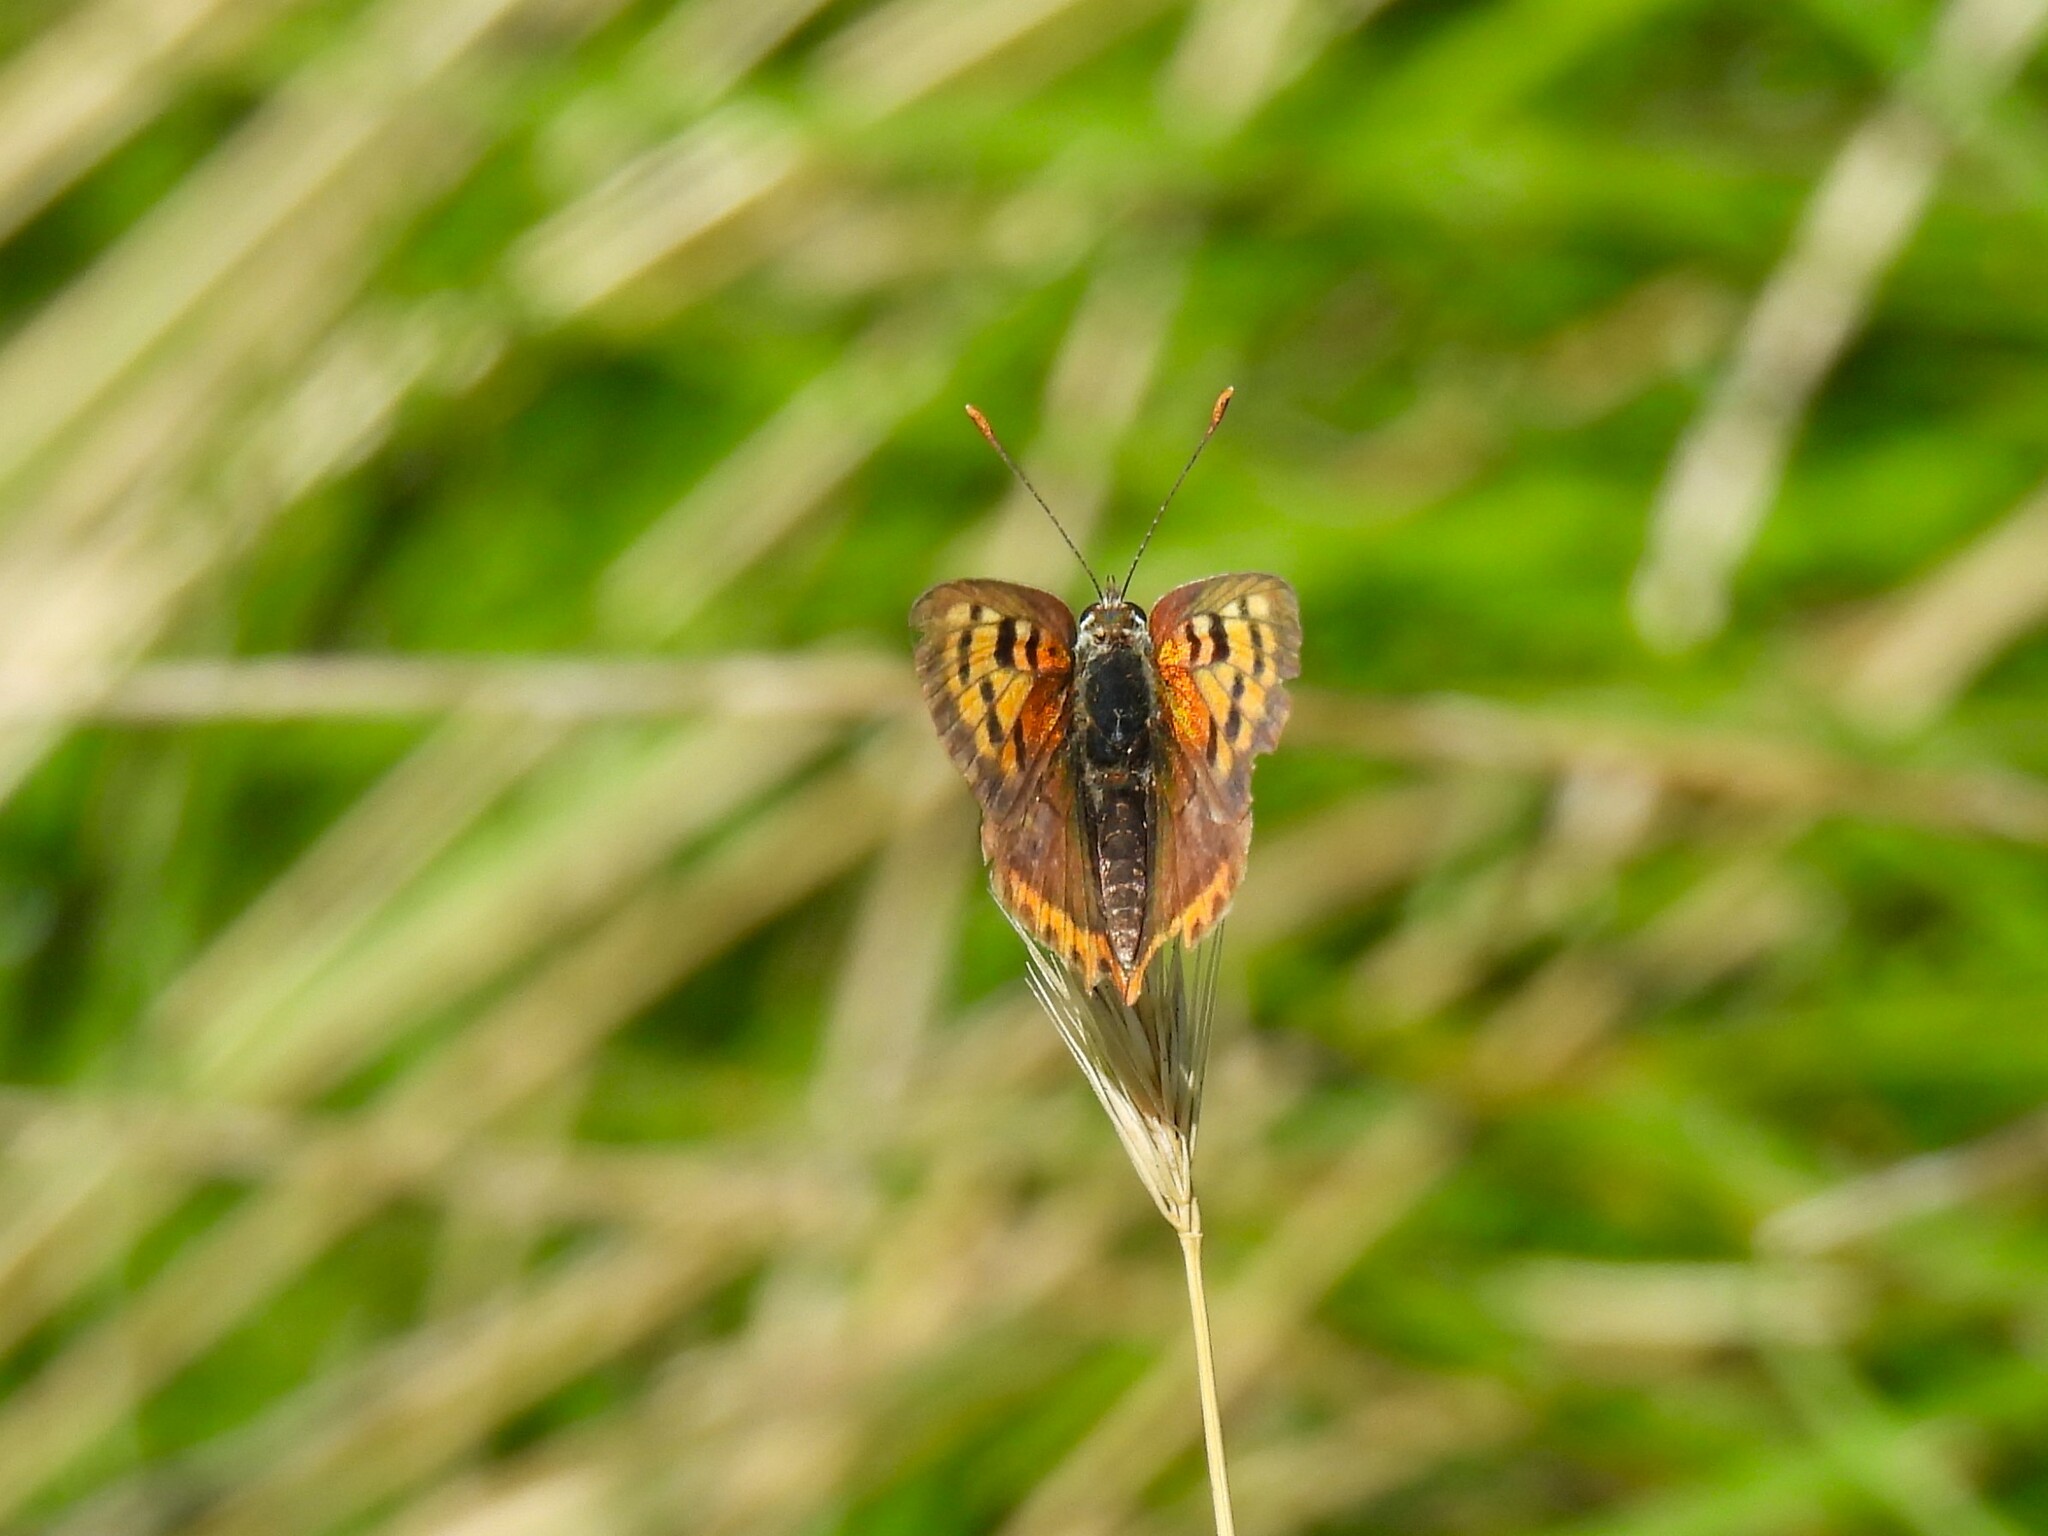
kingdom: Animalia
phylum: Arthropoda
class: Insecta
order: Lepidoptera
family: Lycaenidae
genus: Lycaena
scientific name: Lycaena phlaeas
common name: Small copper
